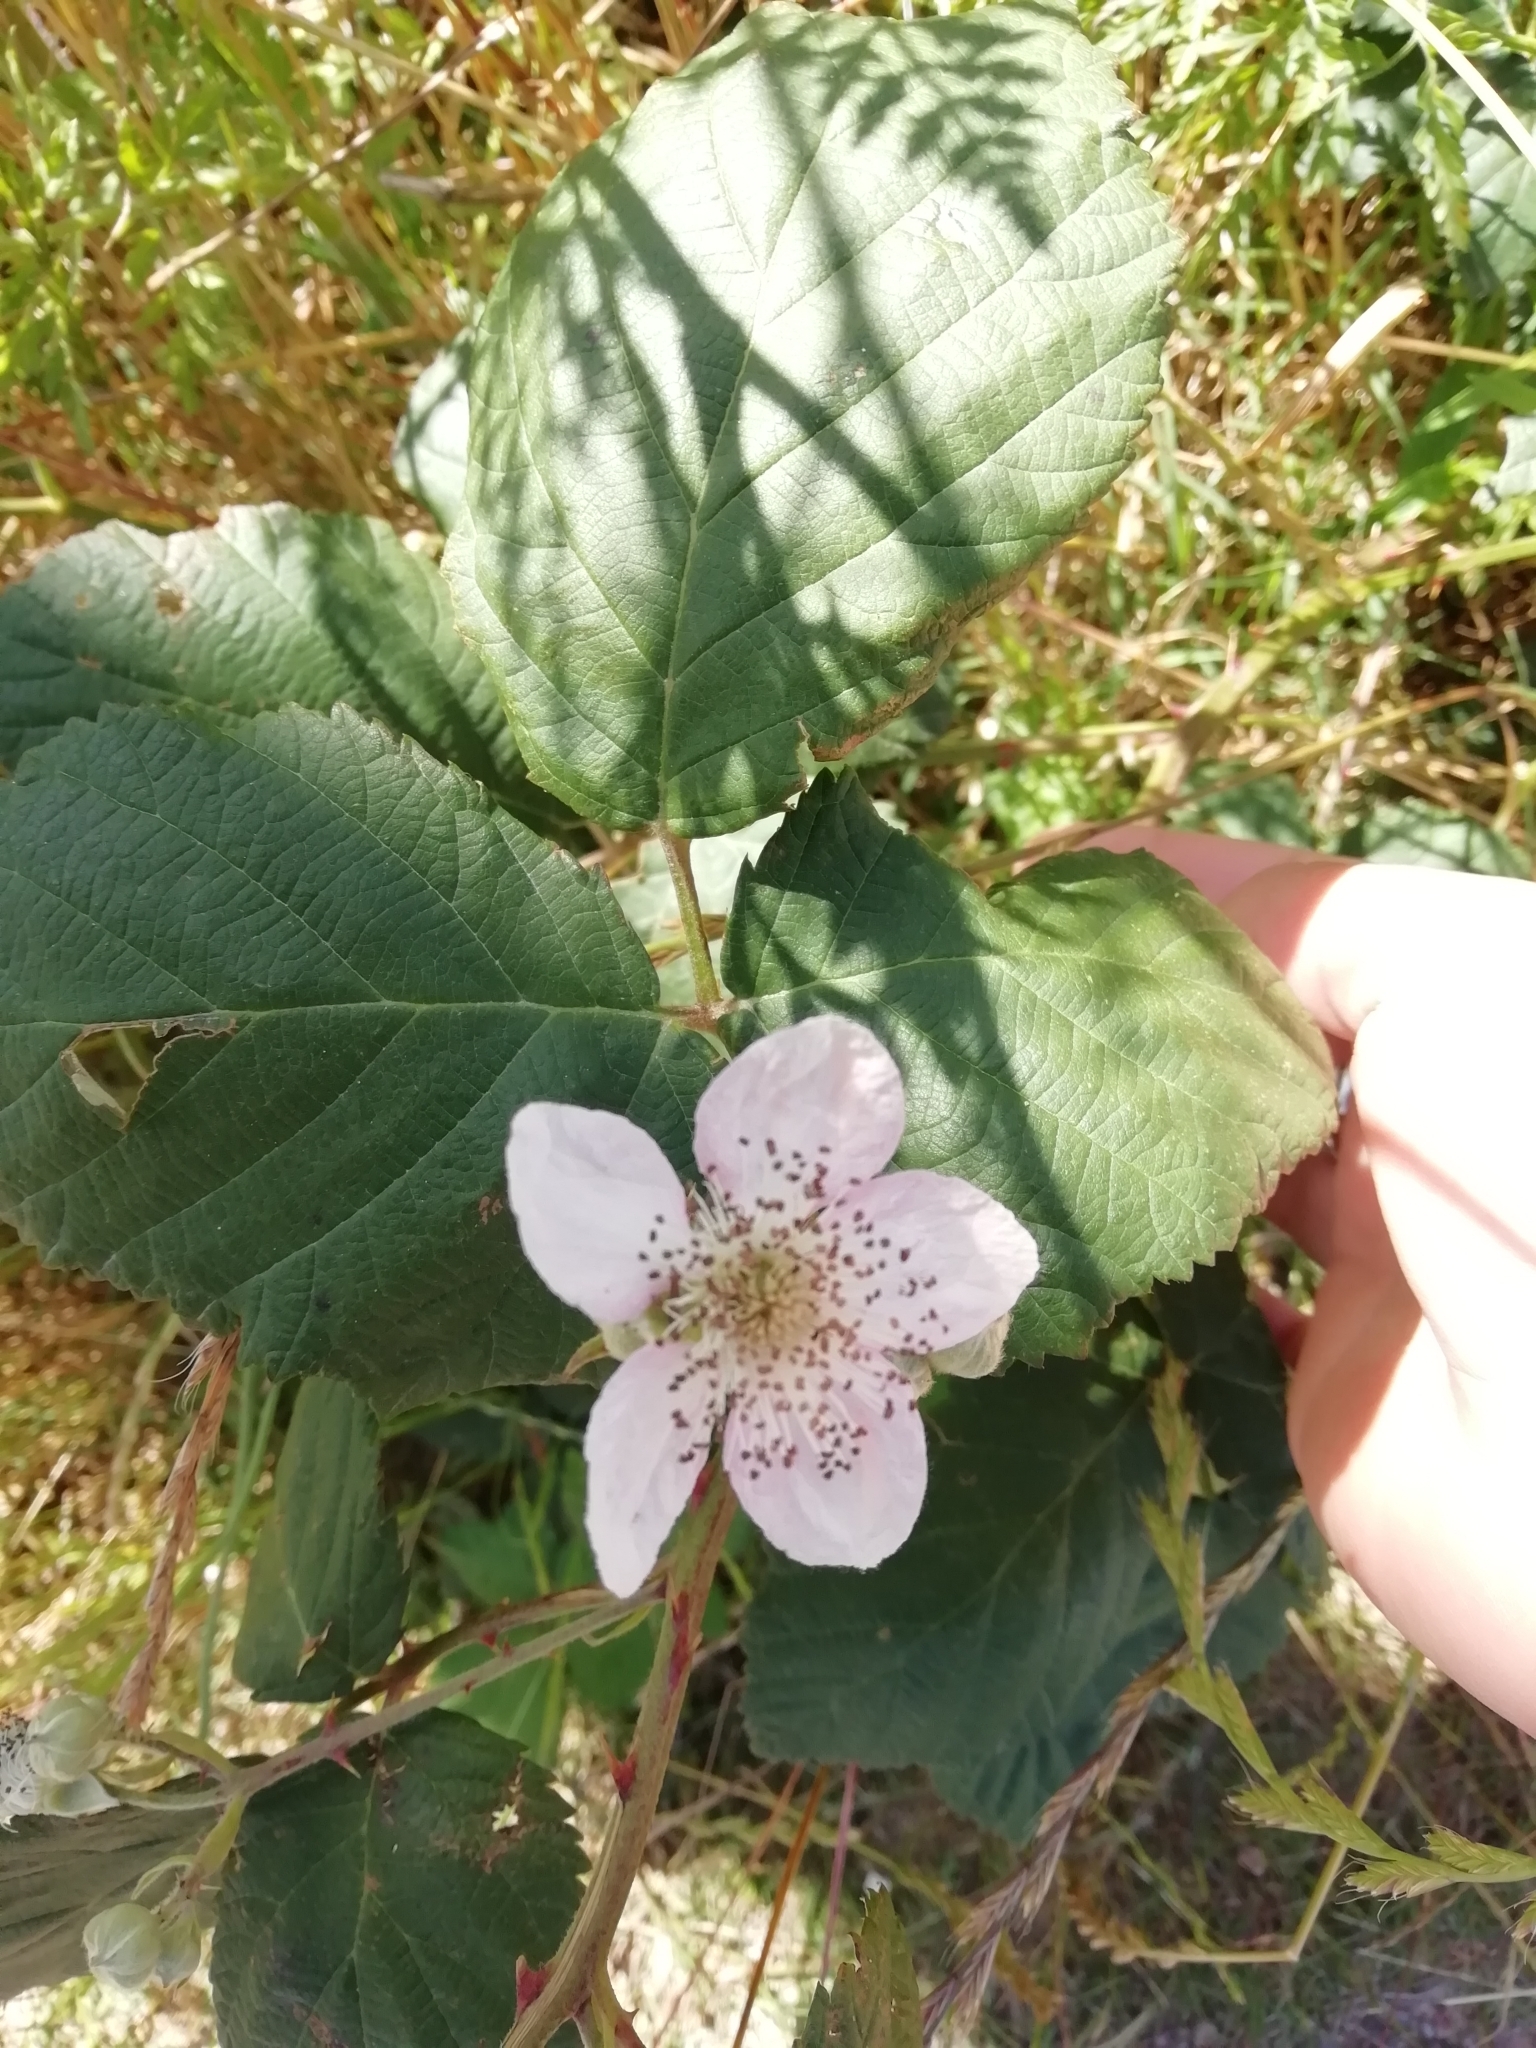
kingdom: Plantae
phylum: Tracheophyta
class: Magnoliopsida
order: Rosales
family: Rosaceae
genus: Rubus
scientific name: Rubus ulmifolius
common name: Elmleaf blackberry
